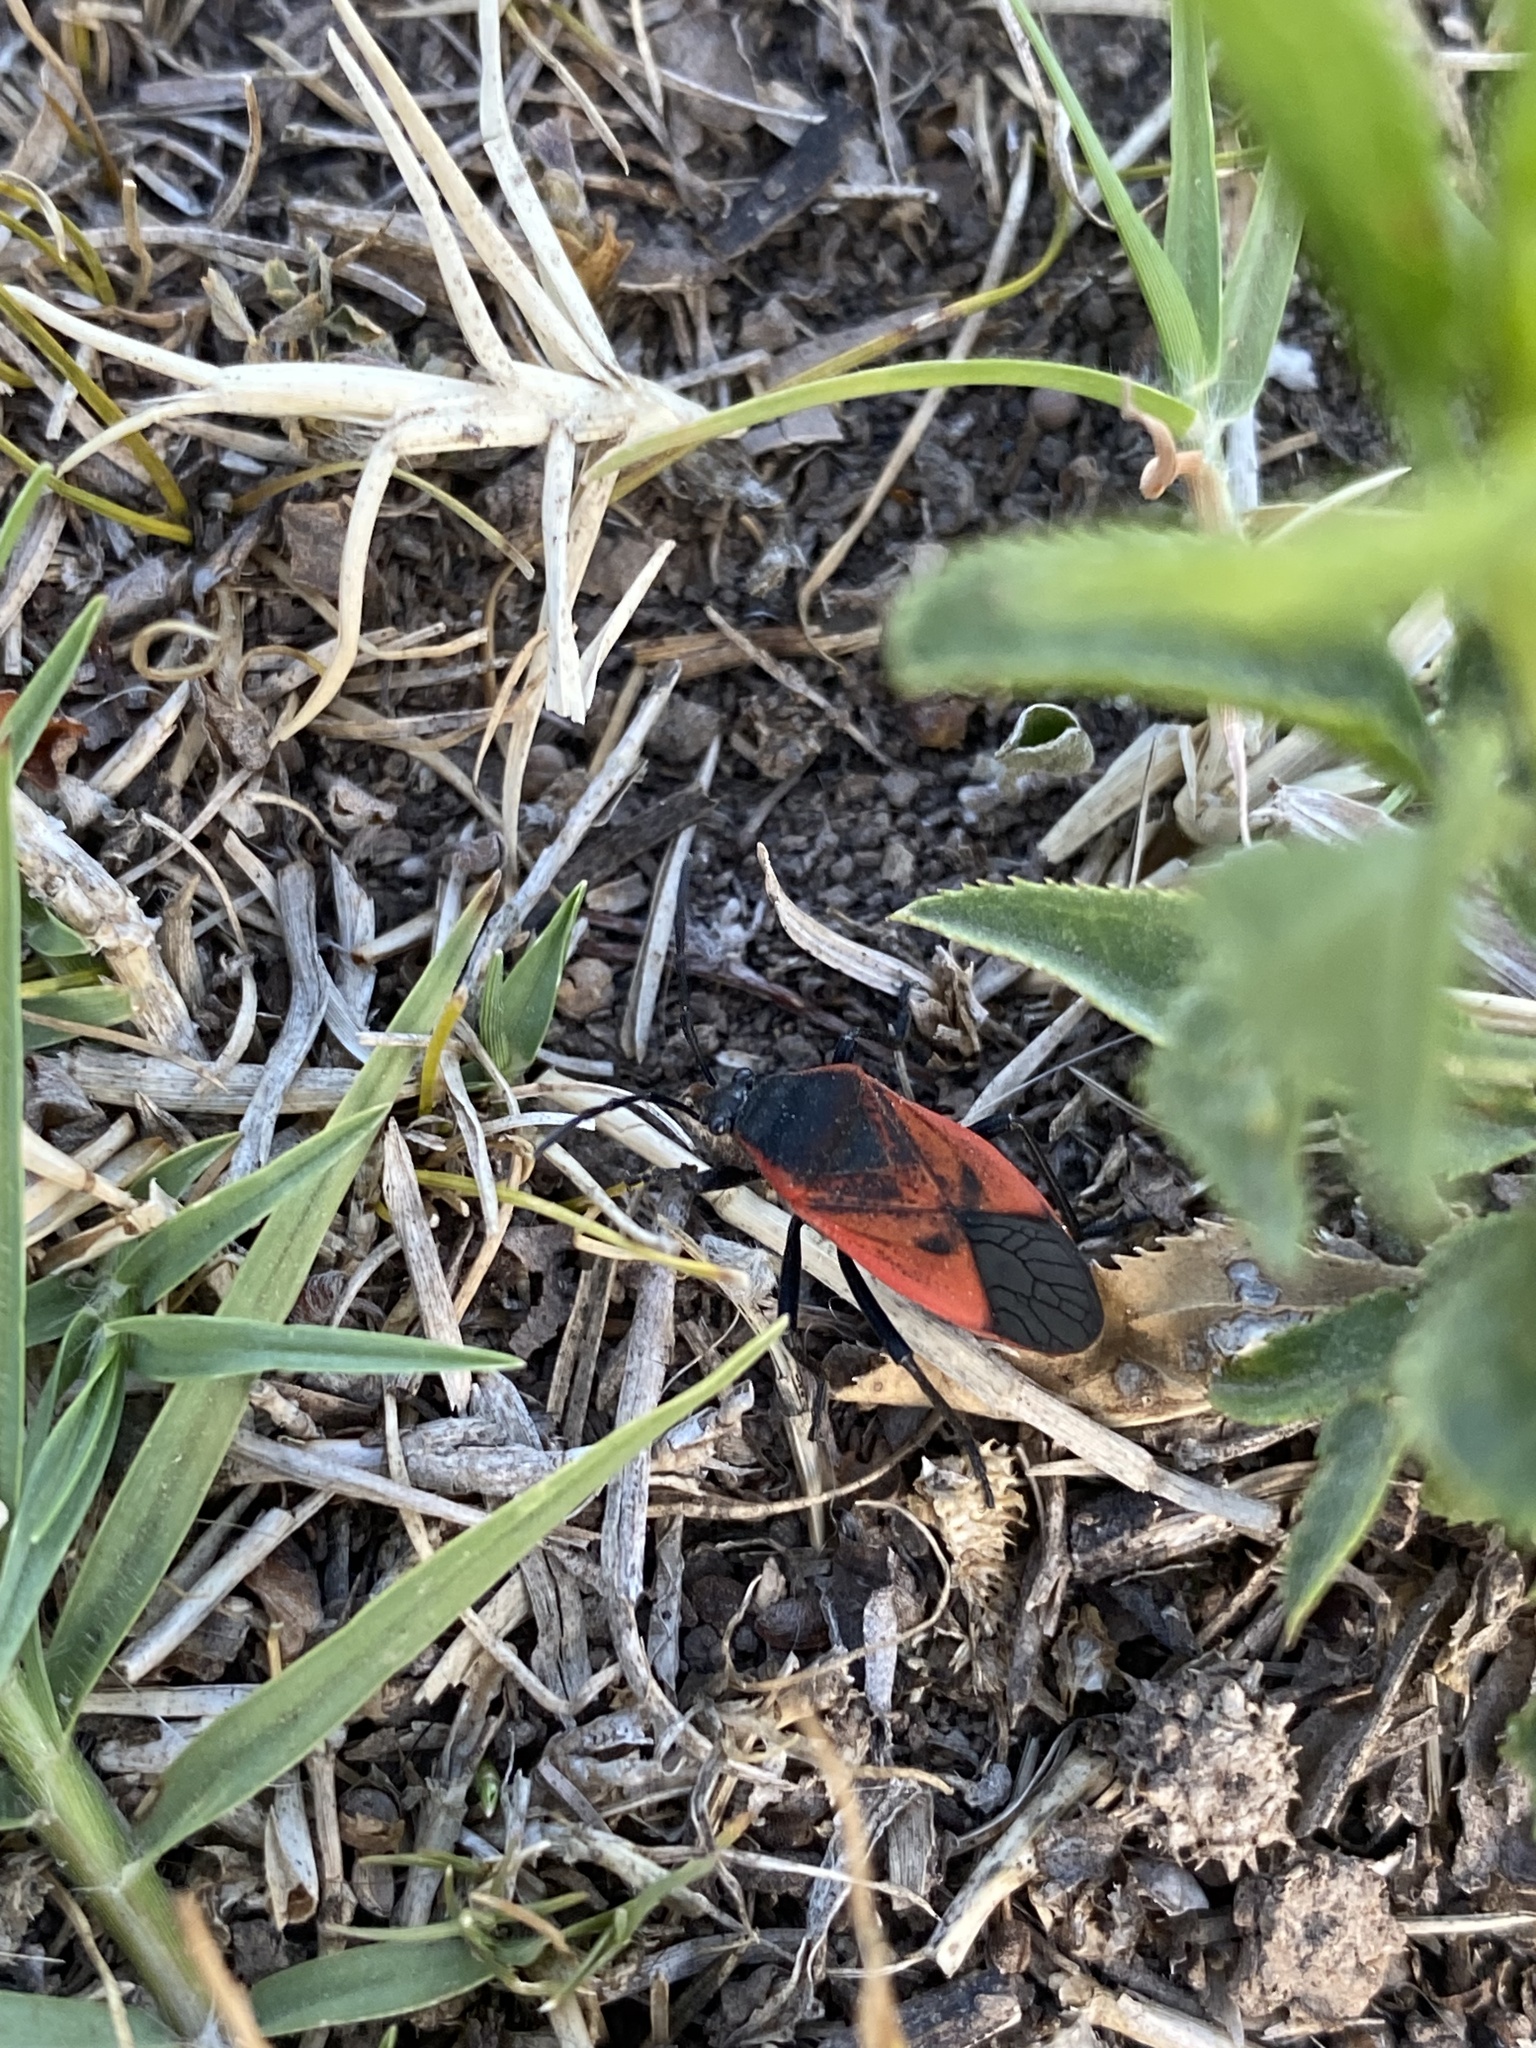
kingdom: Animalia
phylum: Arthropoda
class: Insecta
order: Hemiptera
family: Largidae
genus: Largus
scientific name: Largus rufipennis
